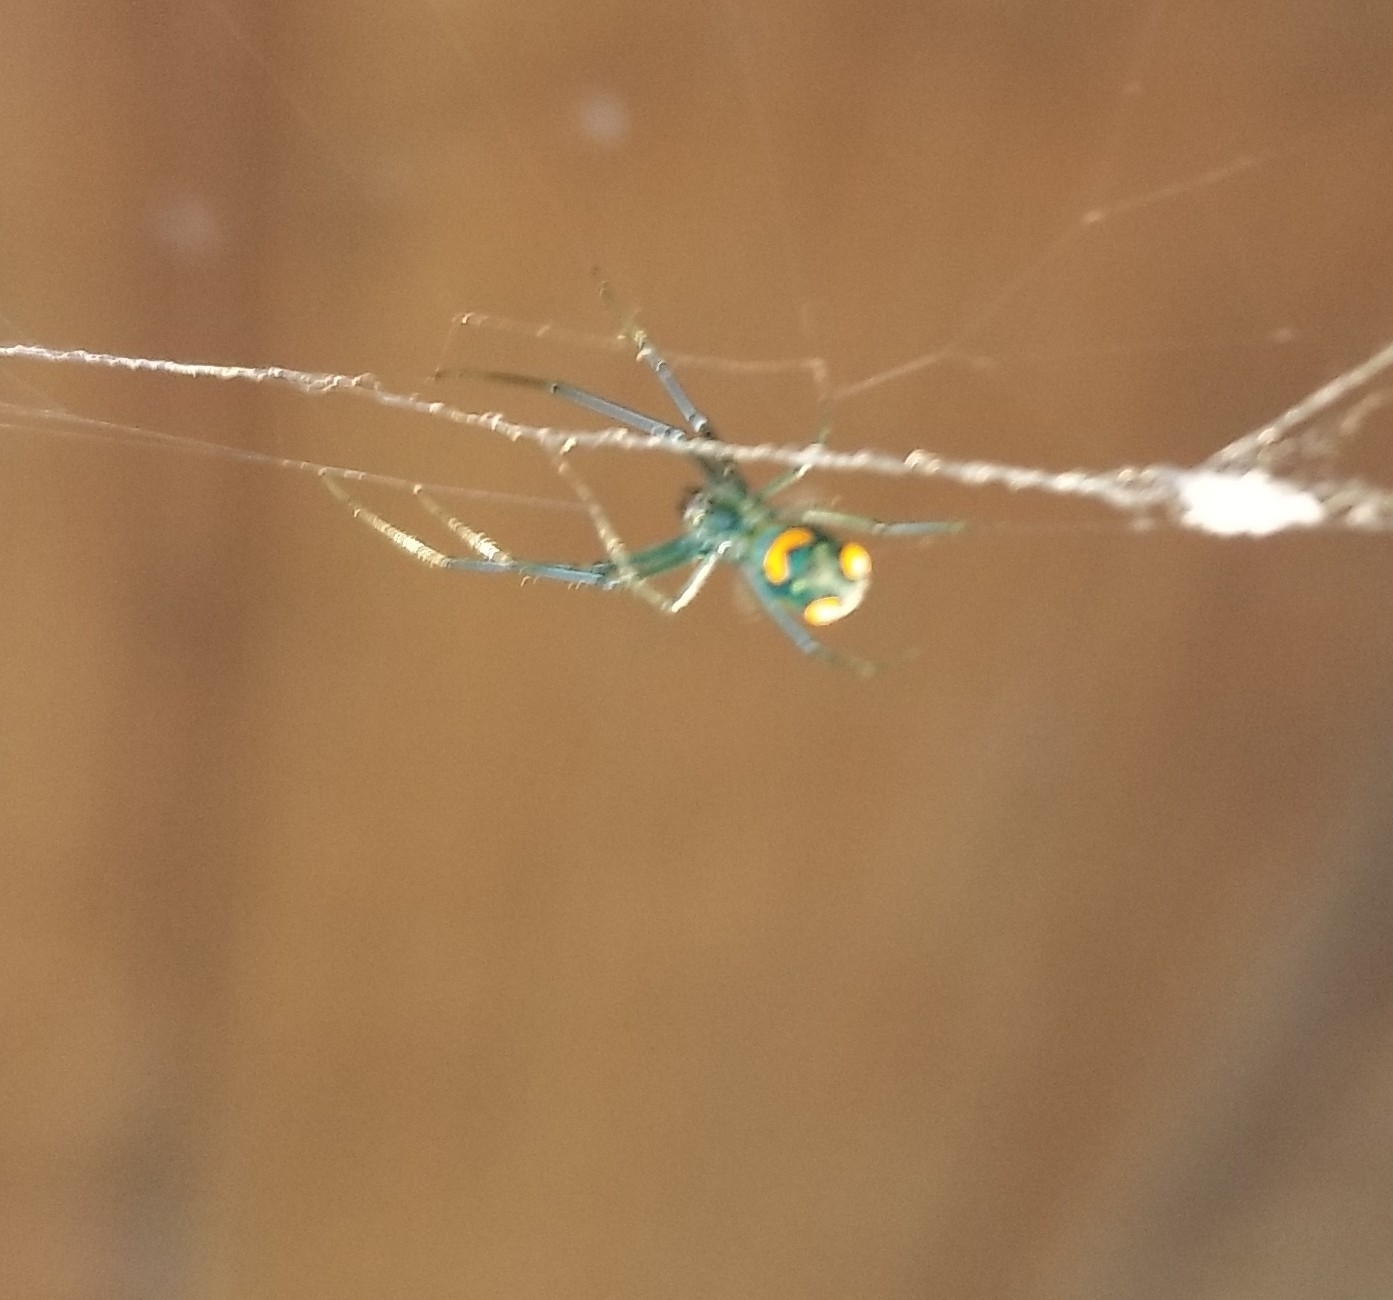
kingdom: Animalia
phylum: Arthropoda
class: Arachnida
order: Araneae
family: Tetragnathidae
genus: Leucauge
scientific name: Leucauge argyrobapta
